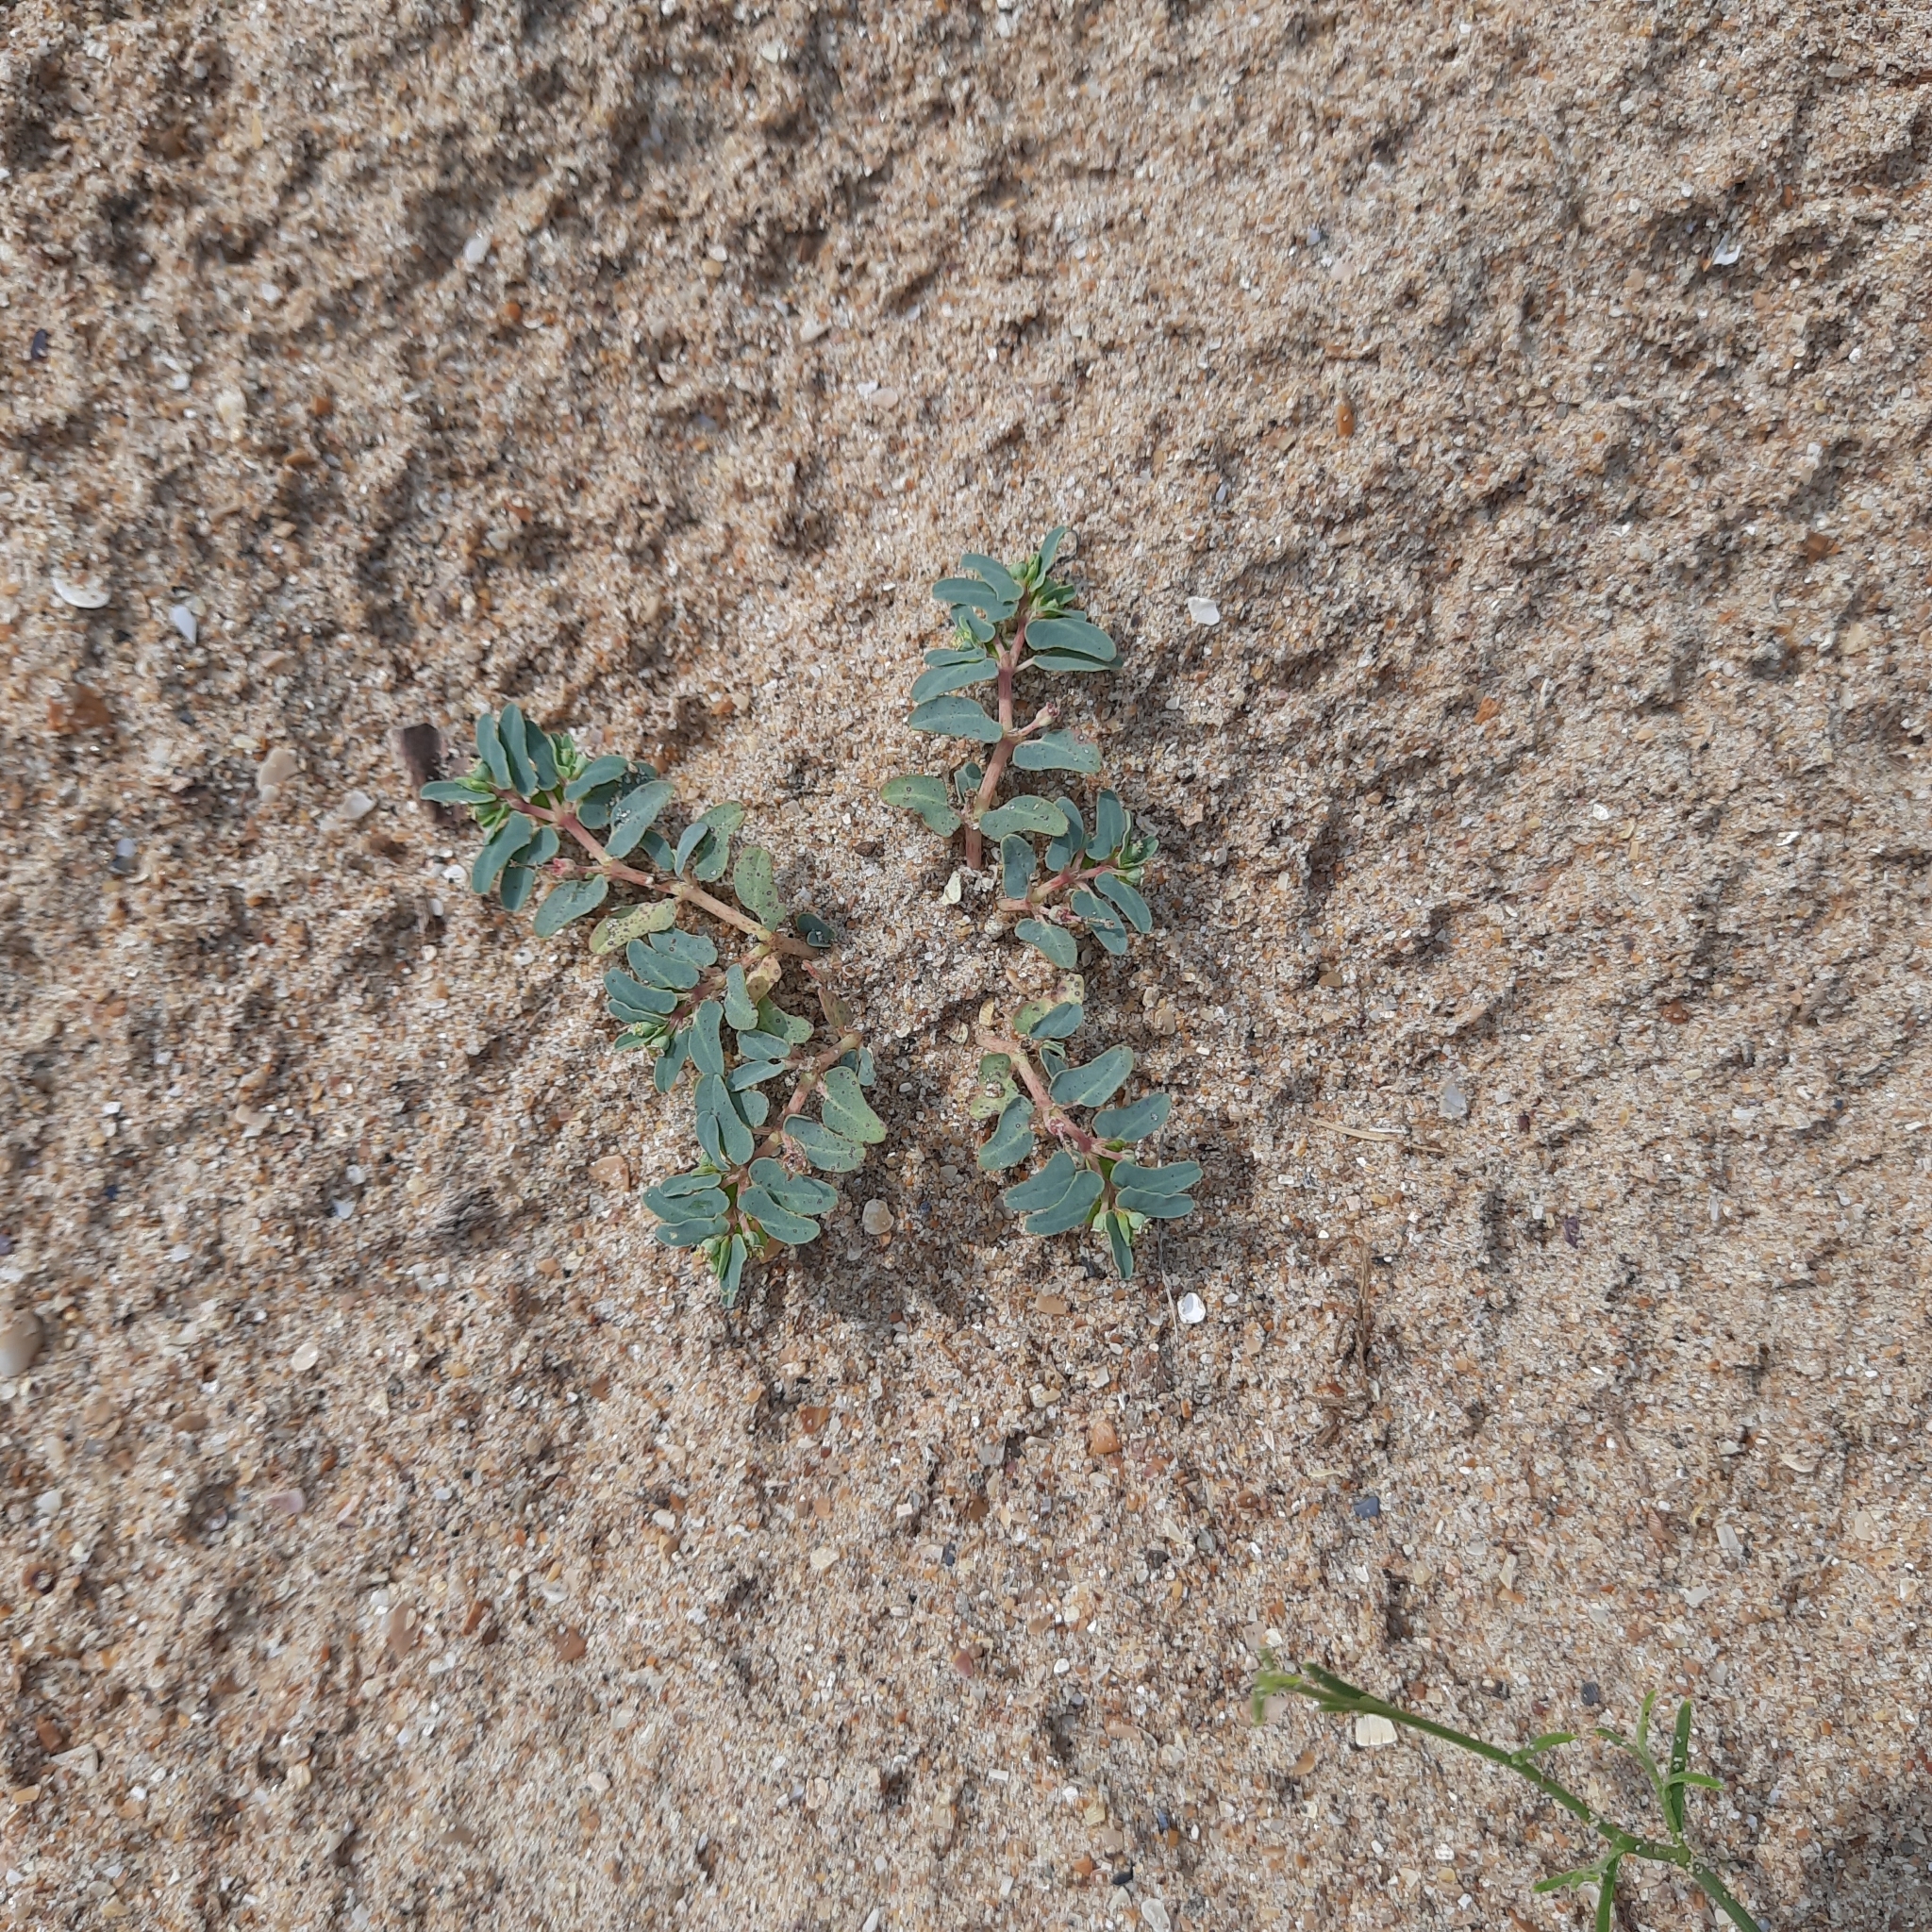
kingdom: Plantae
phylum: Tracheophyta
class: Magnoliopsida
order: Malpighiales
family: Euphorbiaceae
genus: Euphorbia
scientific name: Euphorbia peplis
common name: Purple spurge
